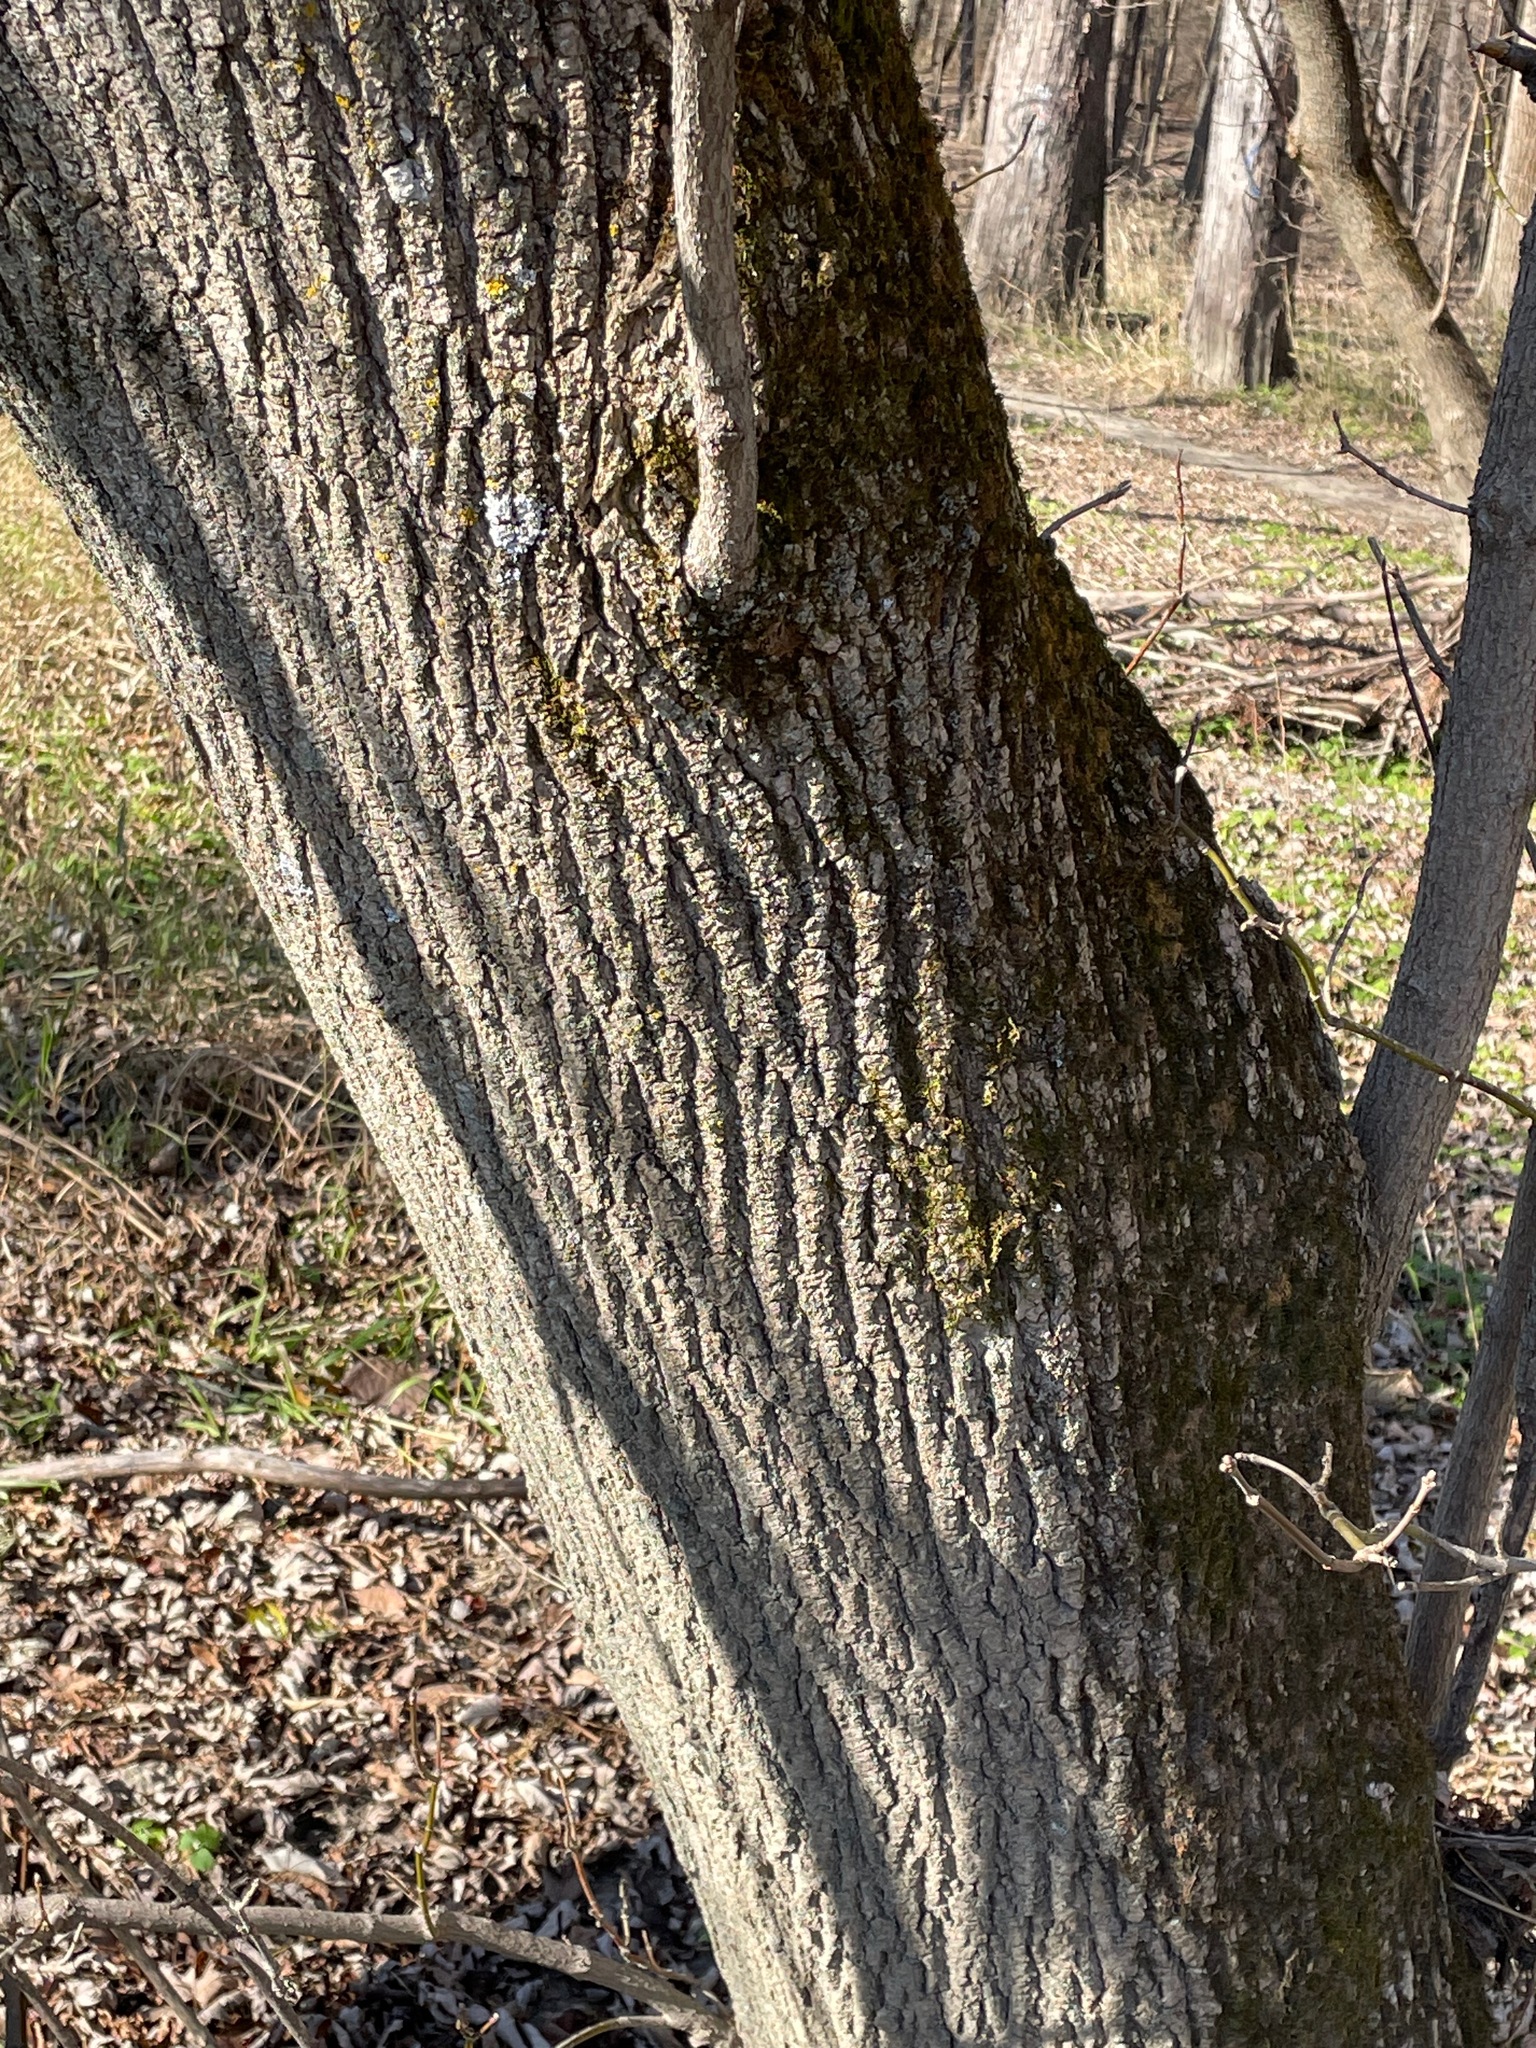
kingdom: Plantae
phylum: Tracheophyta
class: Magnoliopsida
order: Sapindales
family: Sapindaceae
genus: Acer
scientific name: Acer negundo
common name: Ashleaf maple
